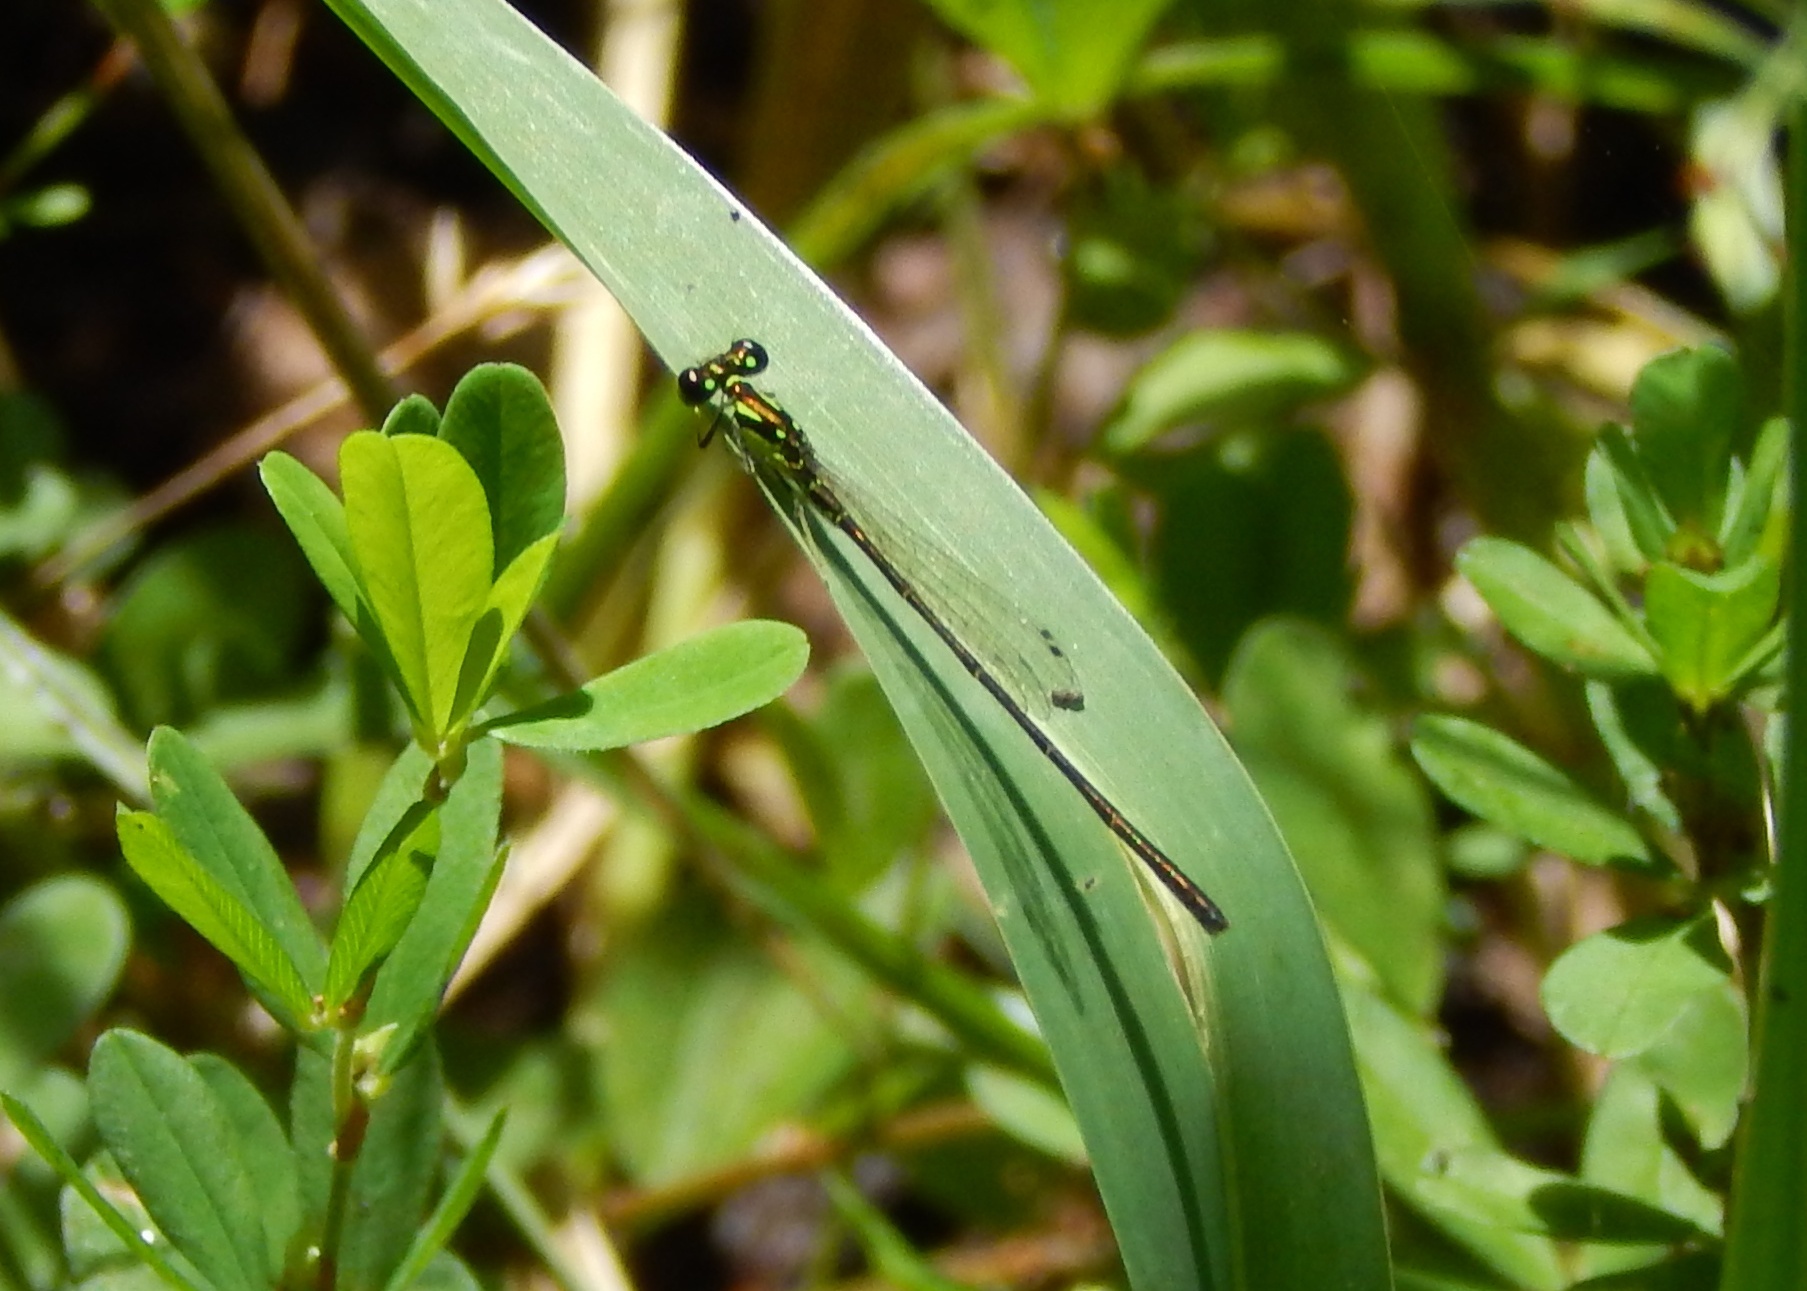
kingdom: Animalia
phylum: Arthropoda
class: Insecta
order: Odonata
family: Coenagrionidae
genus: Ischnura
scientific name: Ischnura posita
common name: Fragile forktail
